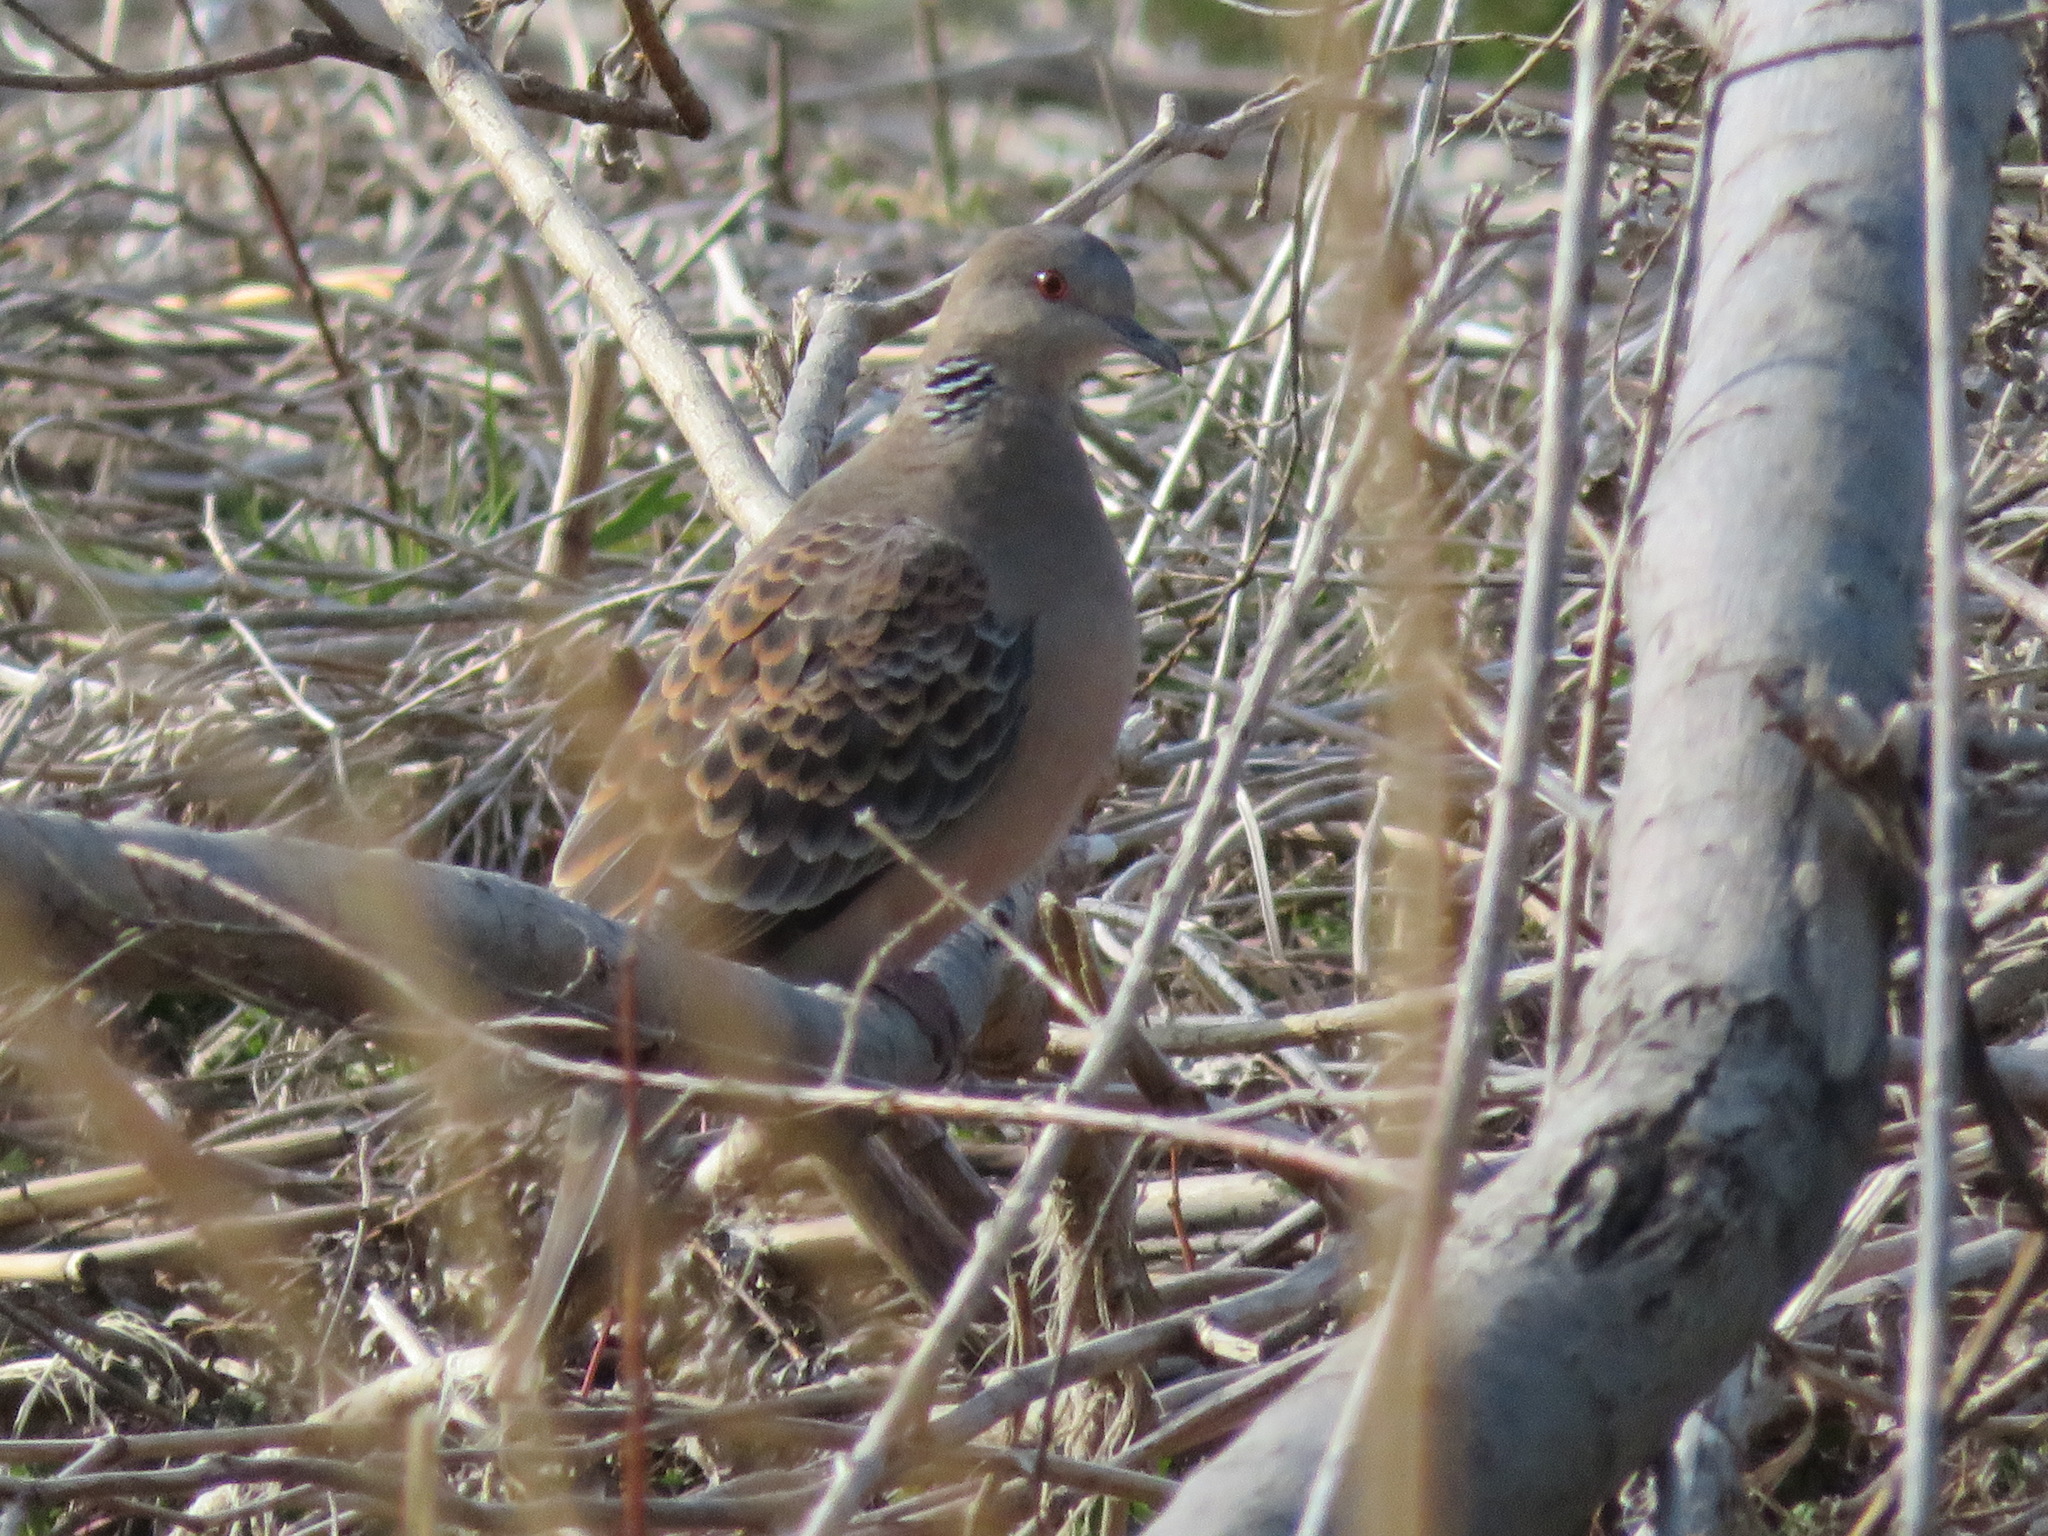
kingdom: Animalia
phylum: Chordata
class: Aves
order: Columbiformes
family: Columbidae
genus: Streptopelia
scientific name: Streptopelia orientalis
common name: Oriental turtle dove
